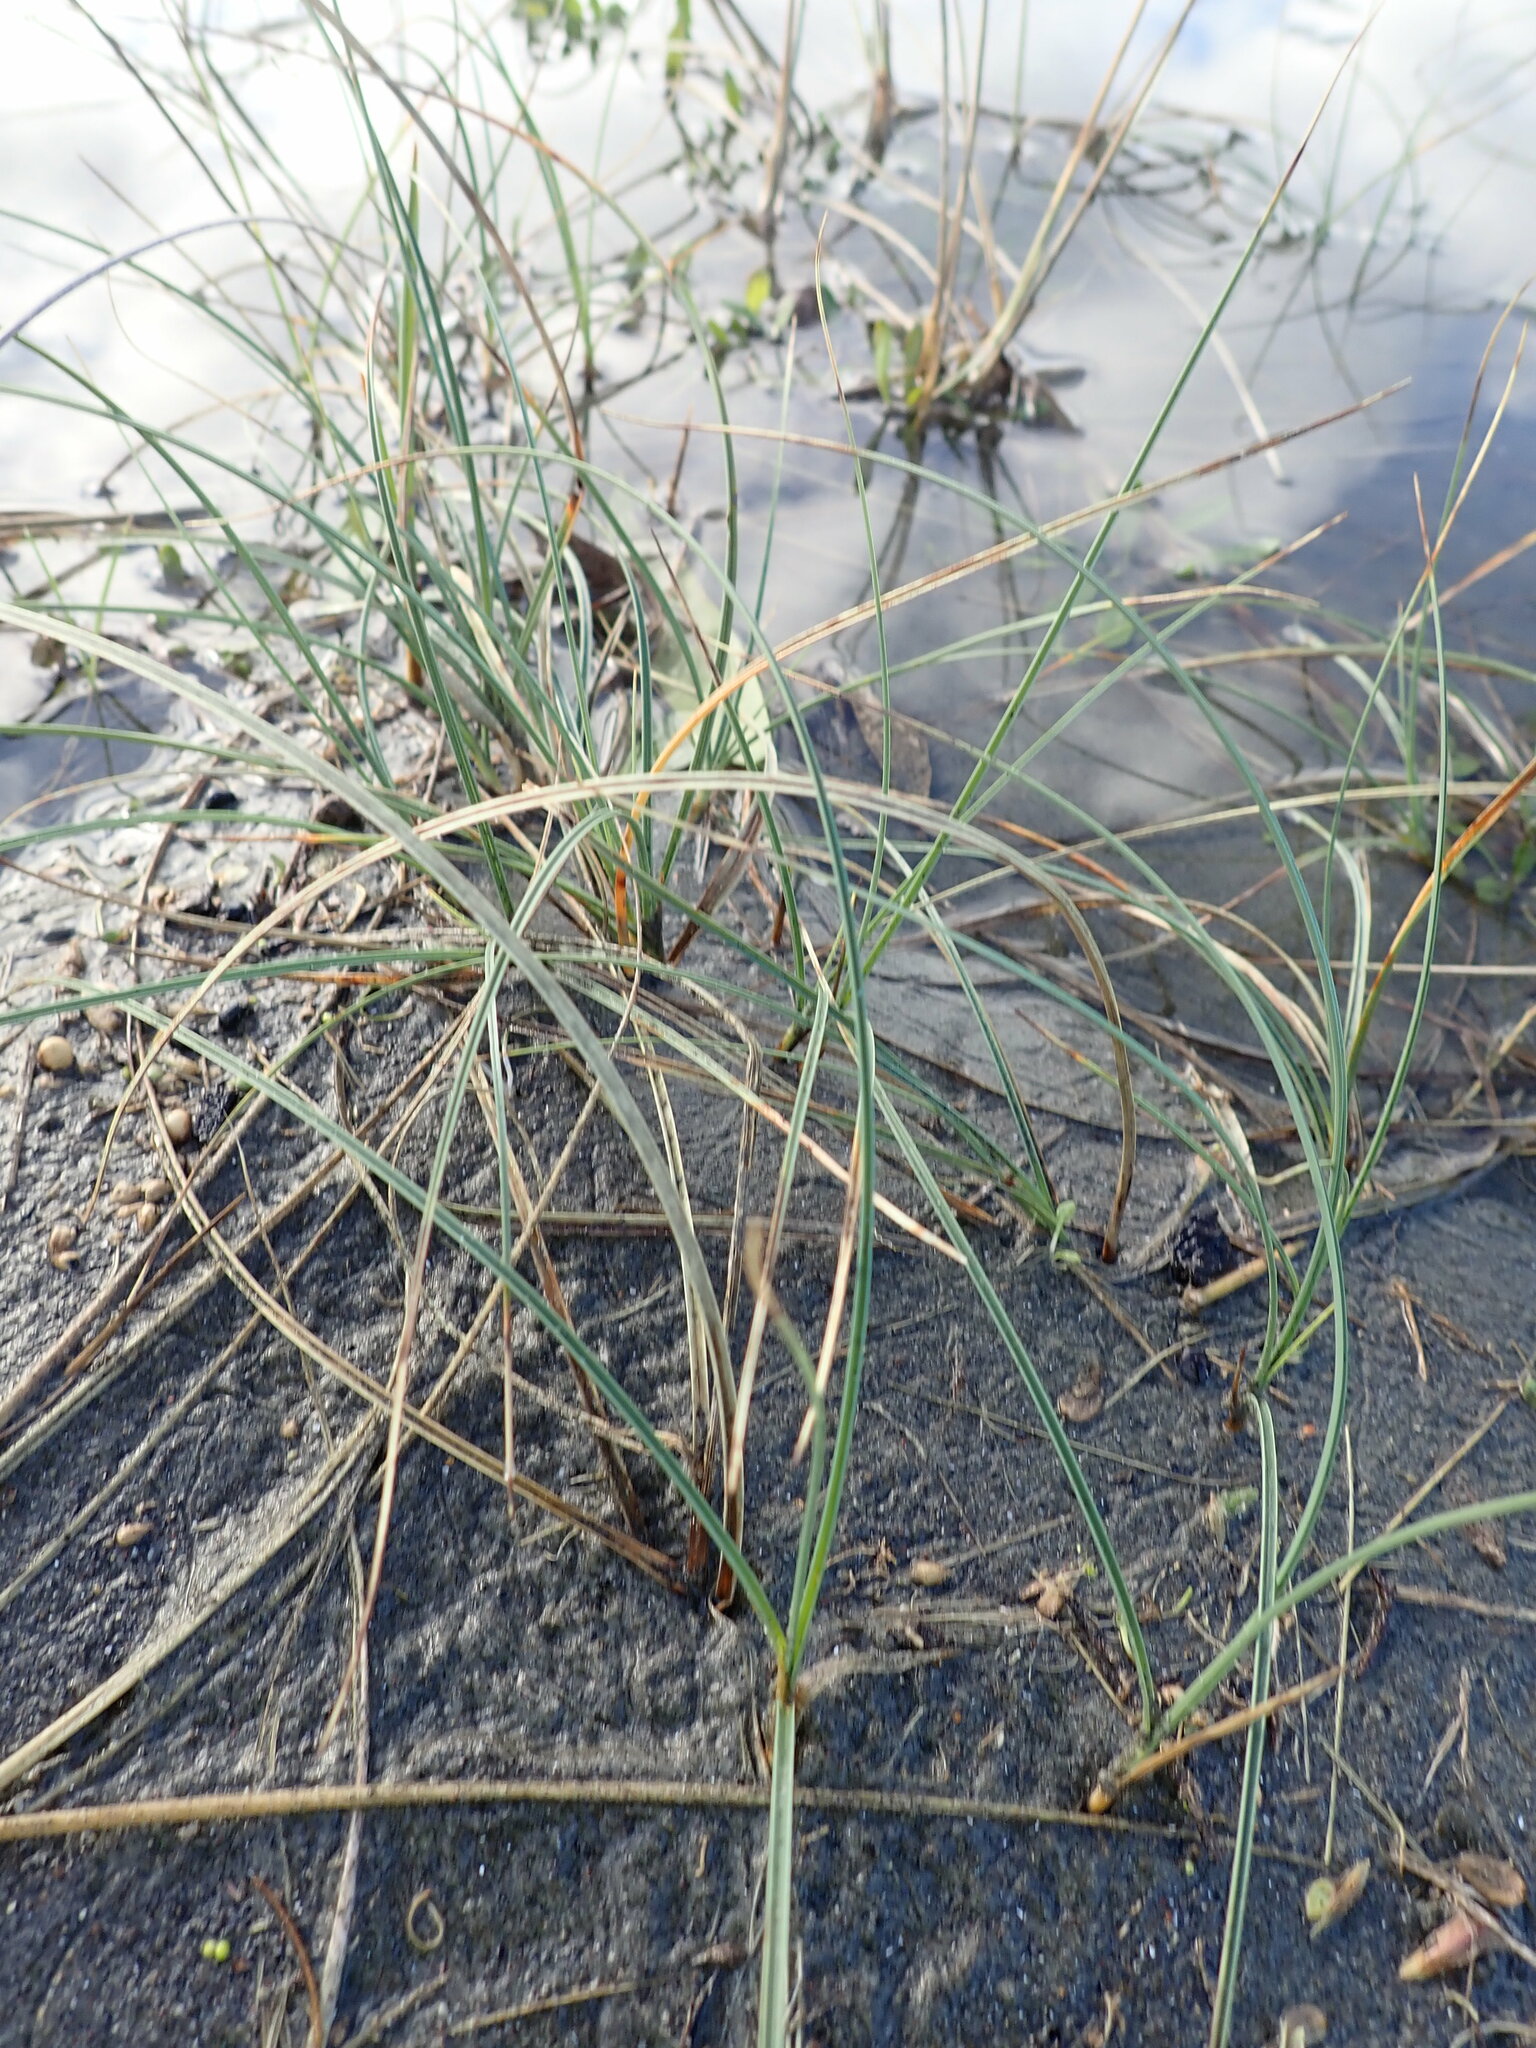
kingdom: Plantae
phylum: Tracheophyta
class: Liliopsida
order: Poales
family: Cyperaceae
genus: Carex
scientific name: Carex pumila
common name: Dwarf sedge
